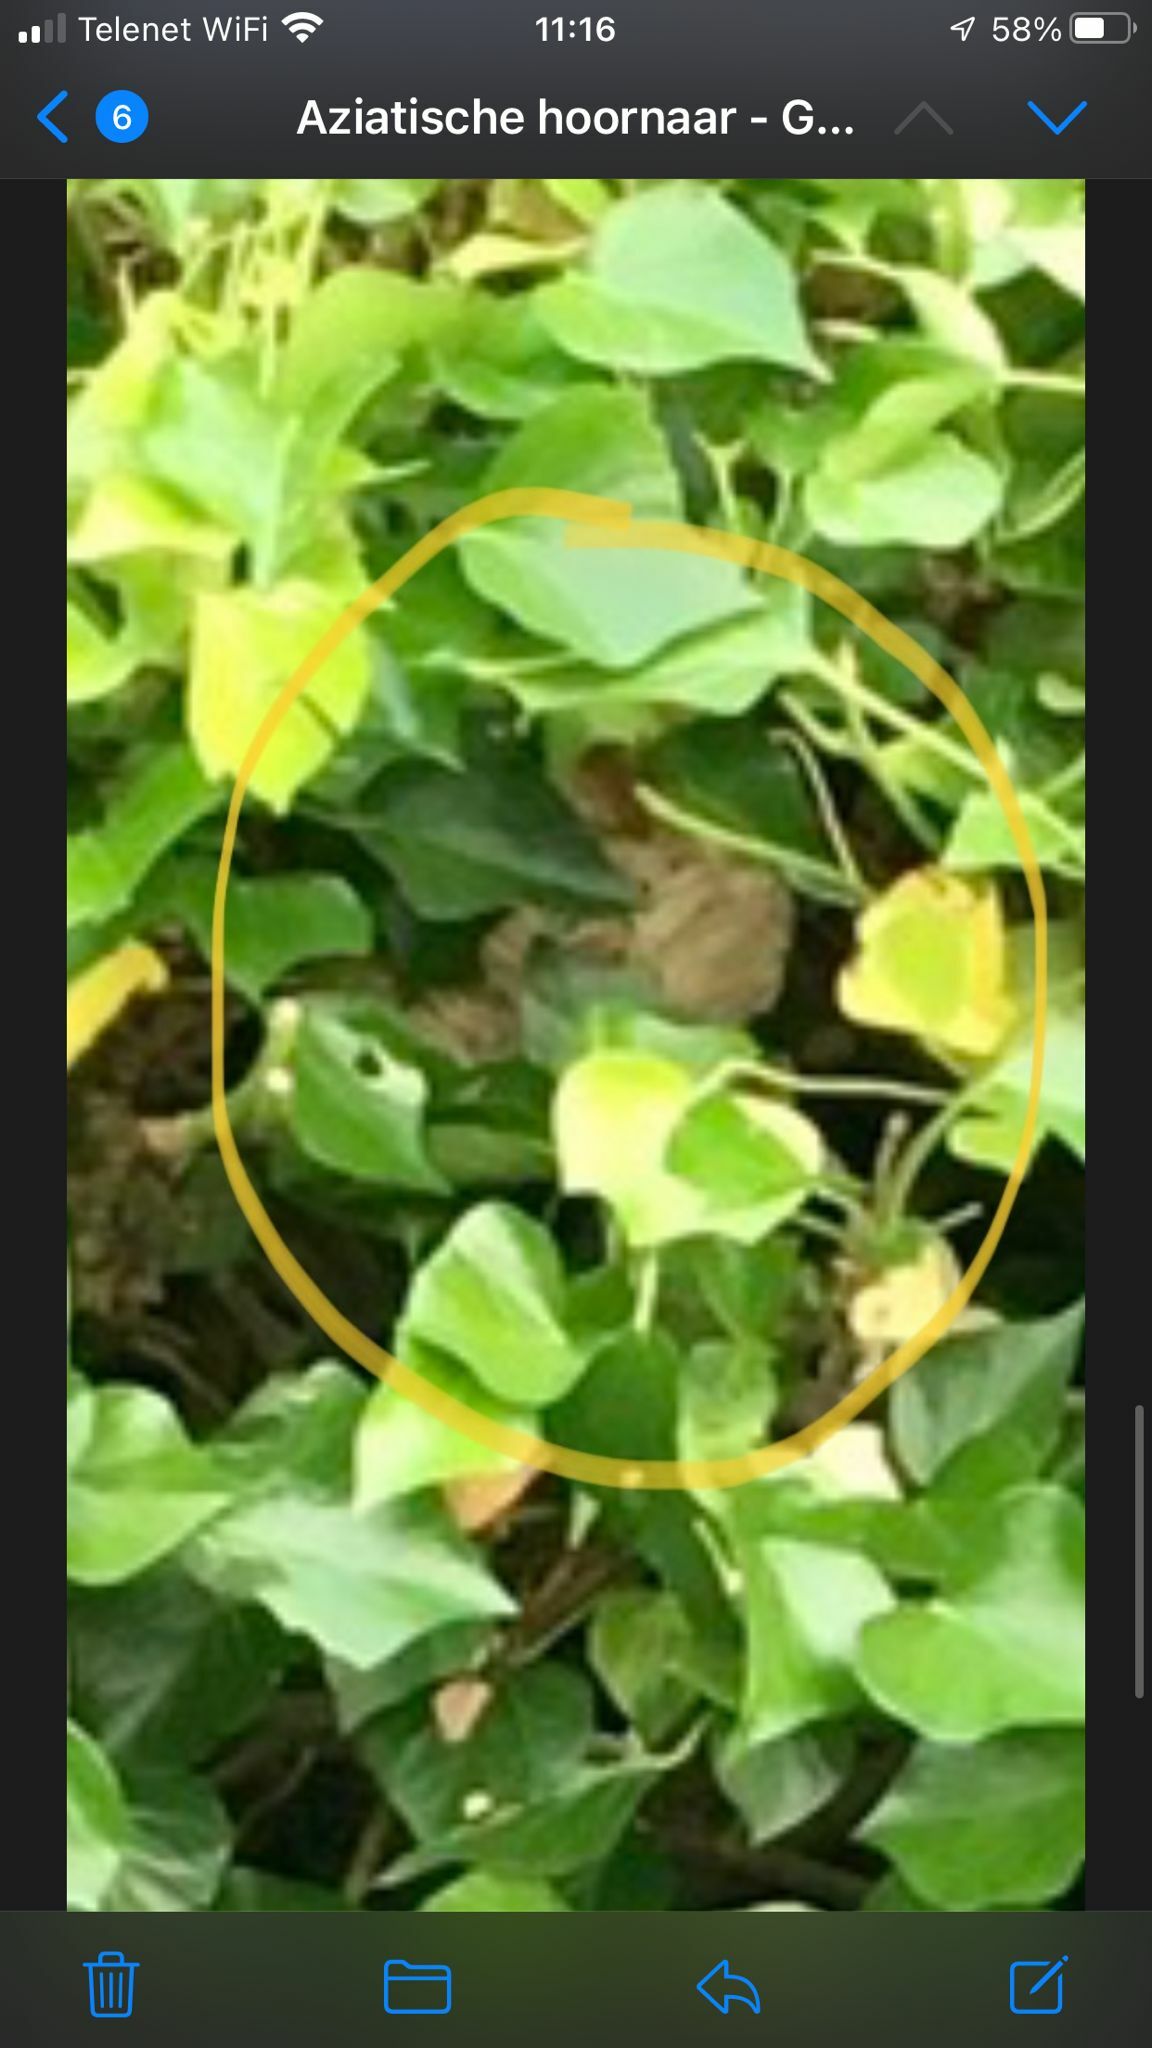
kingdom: Animalia
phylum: Arthropoda
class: Insecta
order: Hymenoptera
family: Vespidae
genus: Vespa
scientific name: Vespa velutina
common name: Asian hornet
